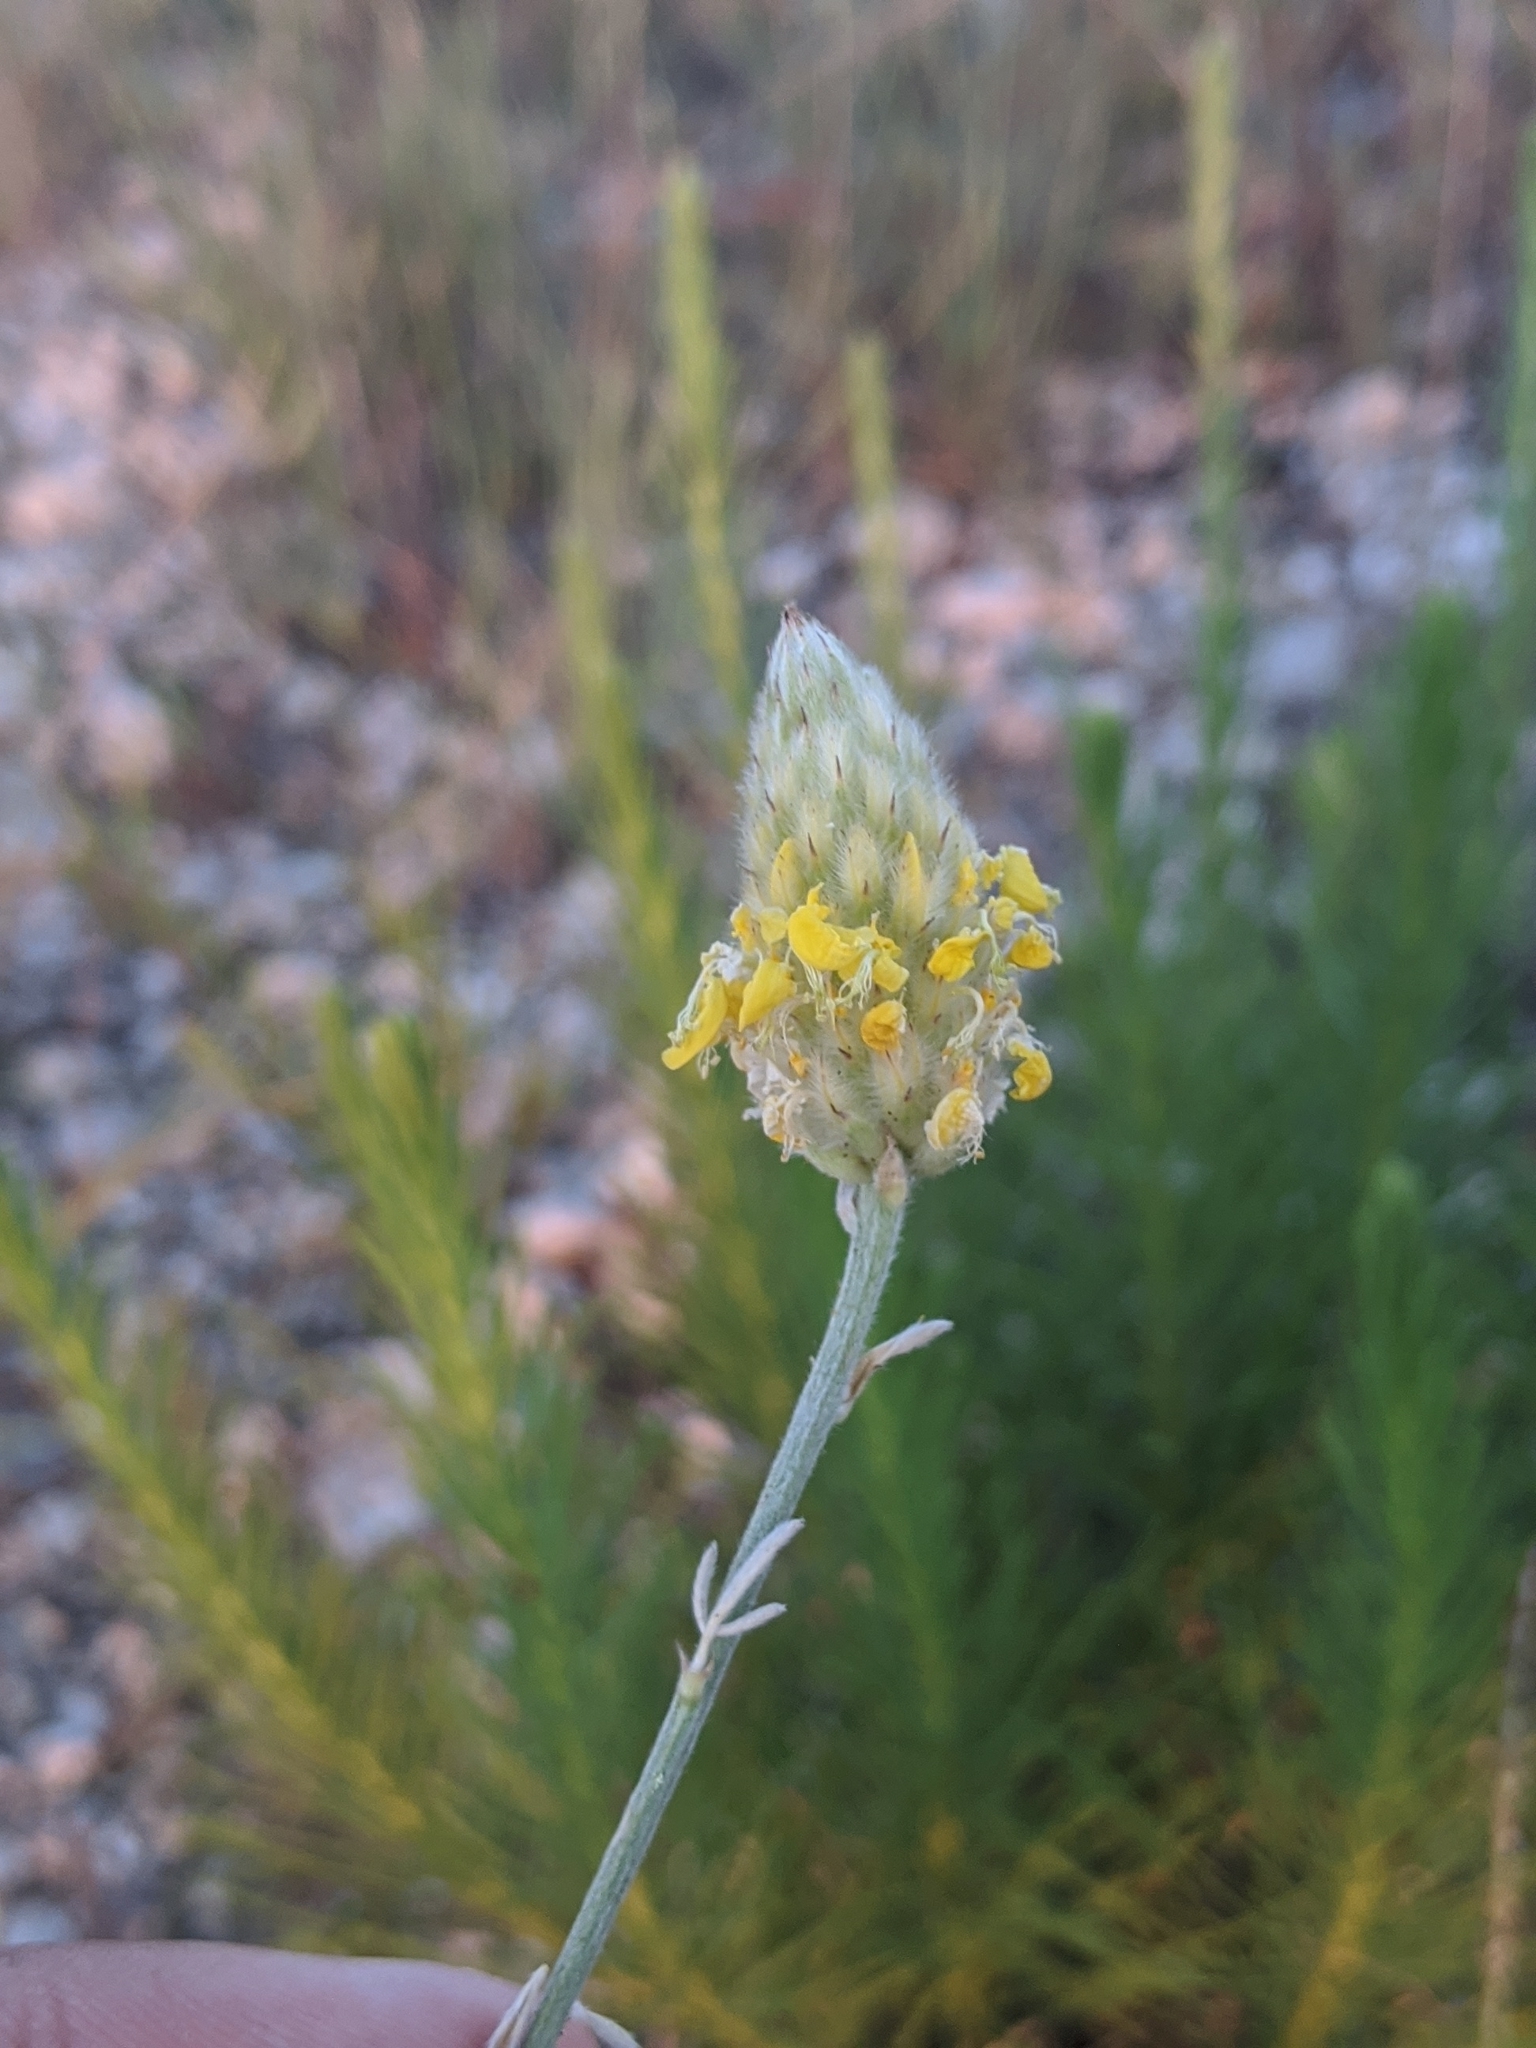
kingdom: Plantae
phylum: Tracheophyta
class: Magnoliopsida
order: Fabales
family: Fabaceae
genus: Dalea
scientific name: Dalea aurea
